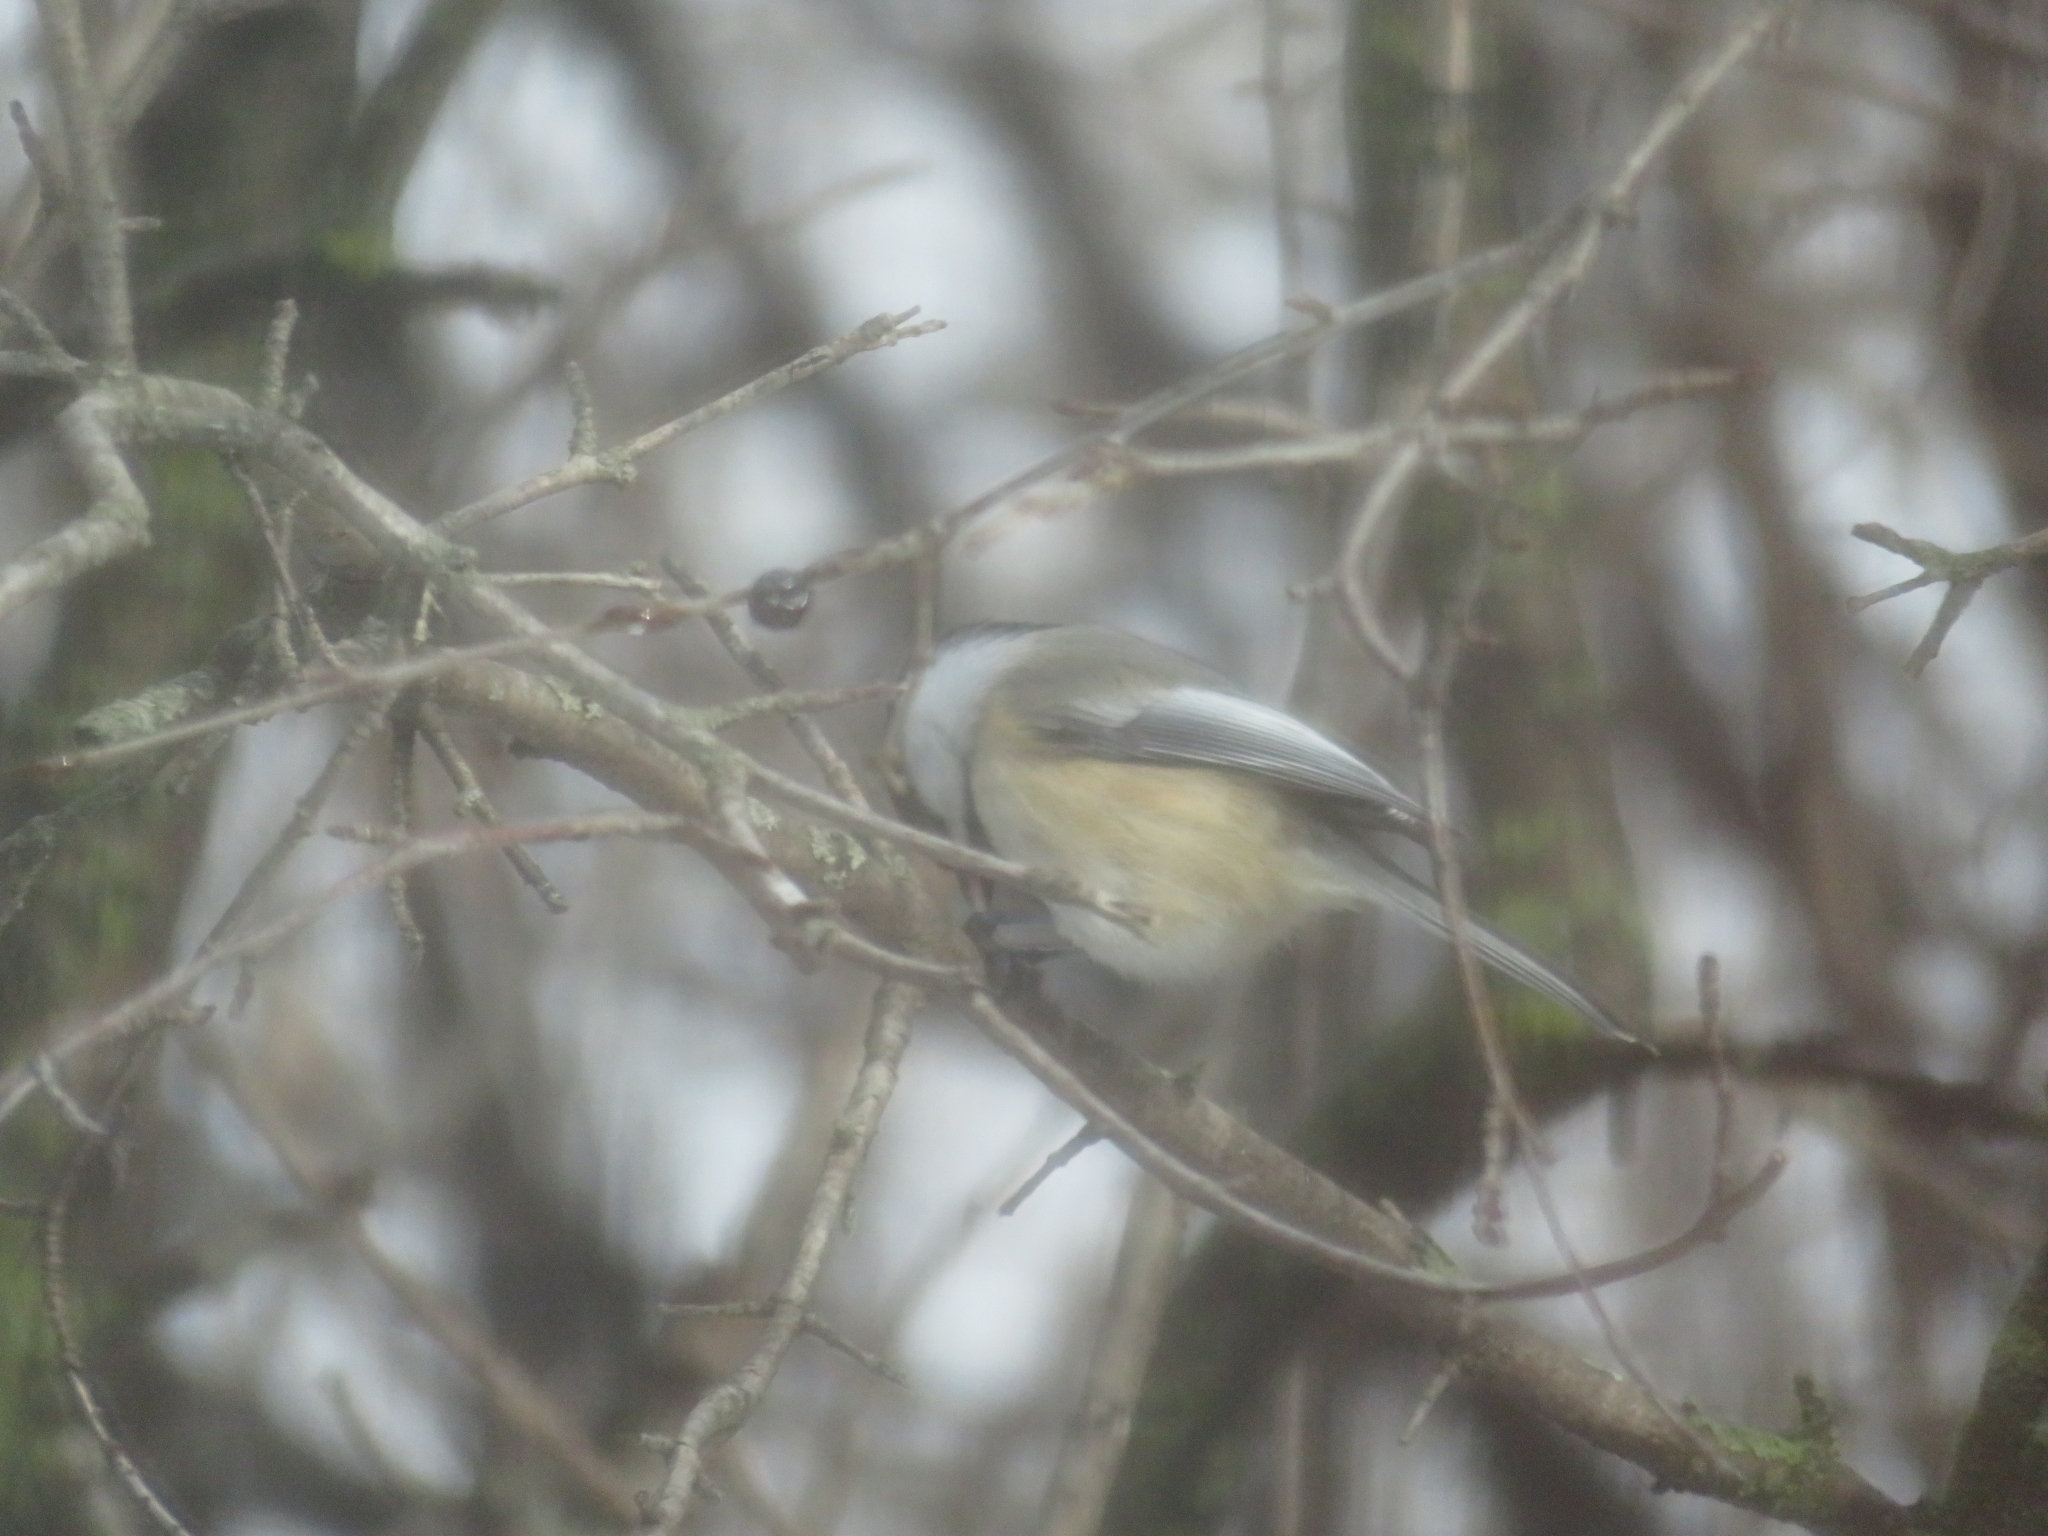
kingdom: Animalia
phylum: Chordata
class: Aves
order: Passeriformes
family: Paridae
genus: Poecile
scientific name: Poecile atricapillus
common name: Black-capped chickadee
